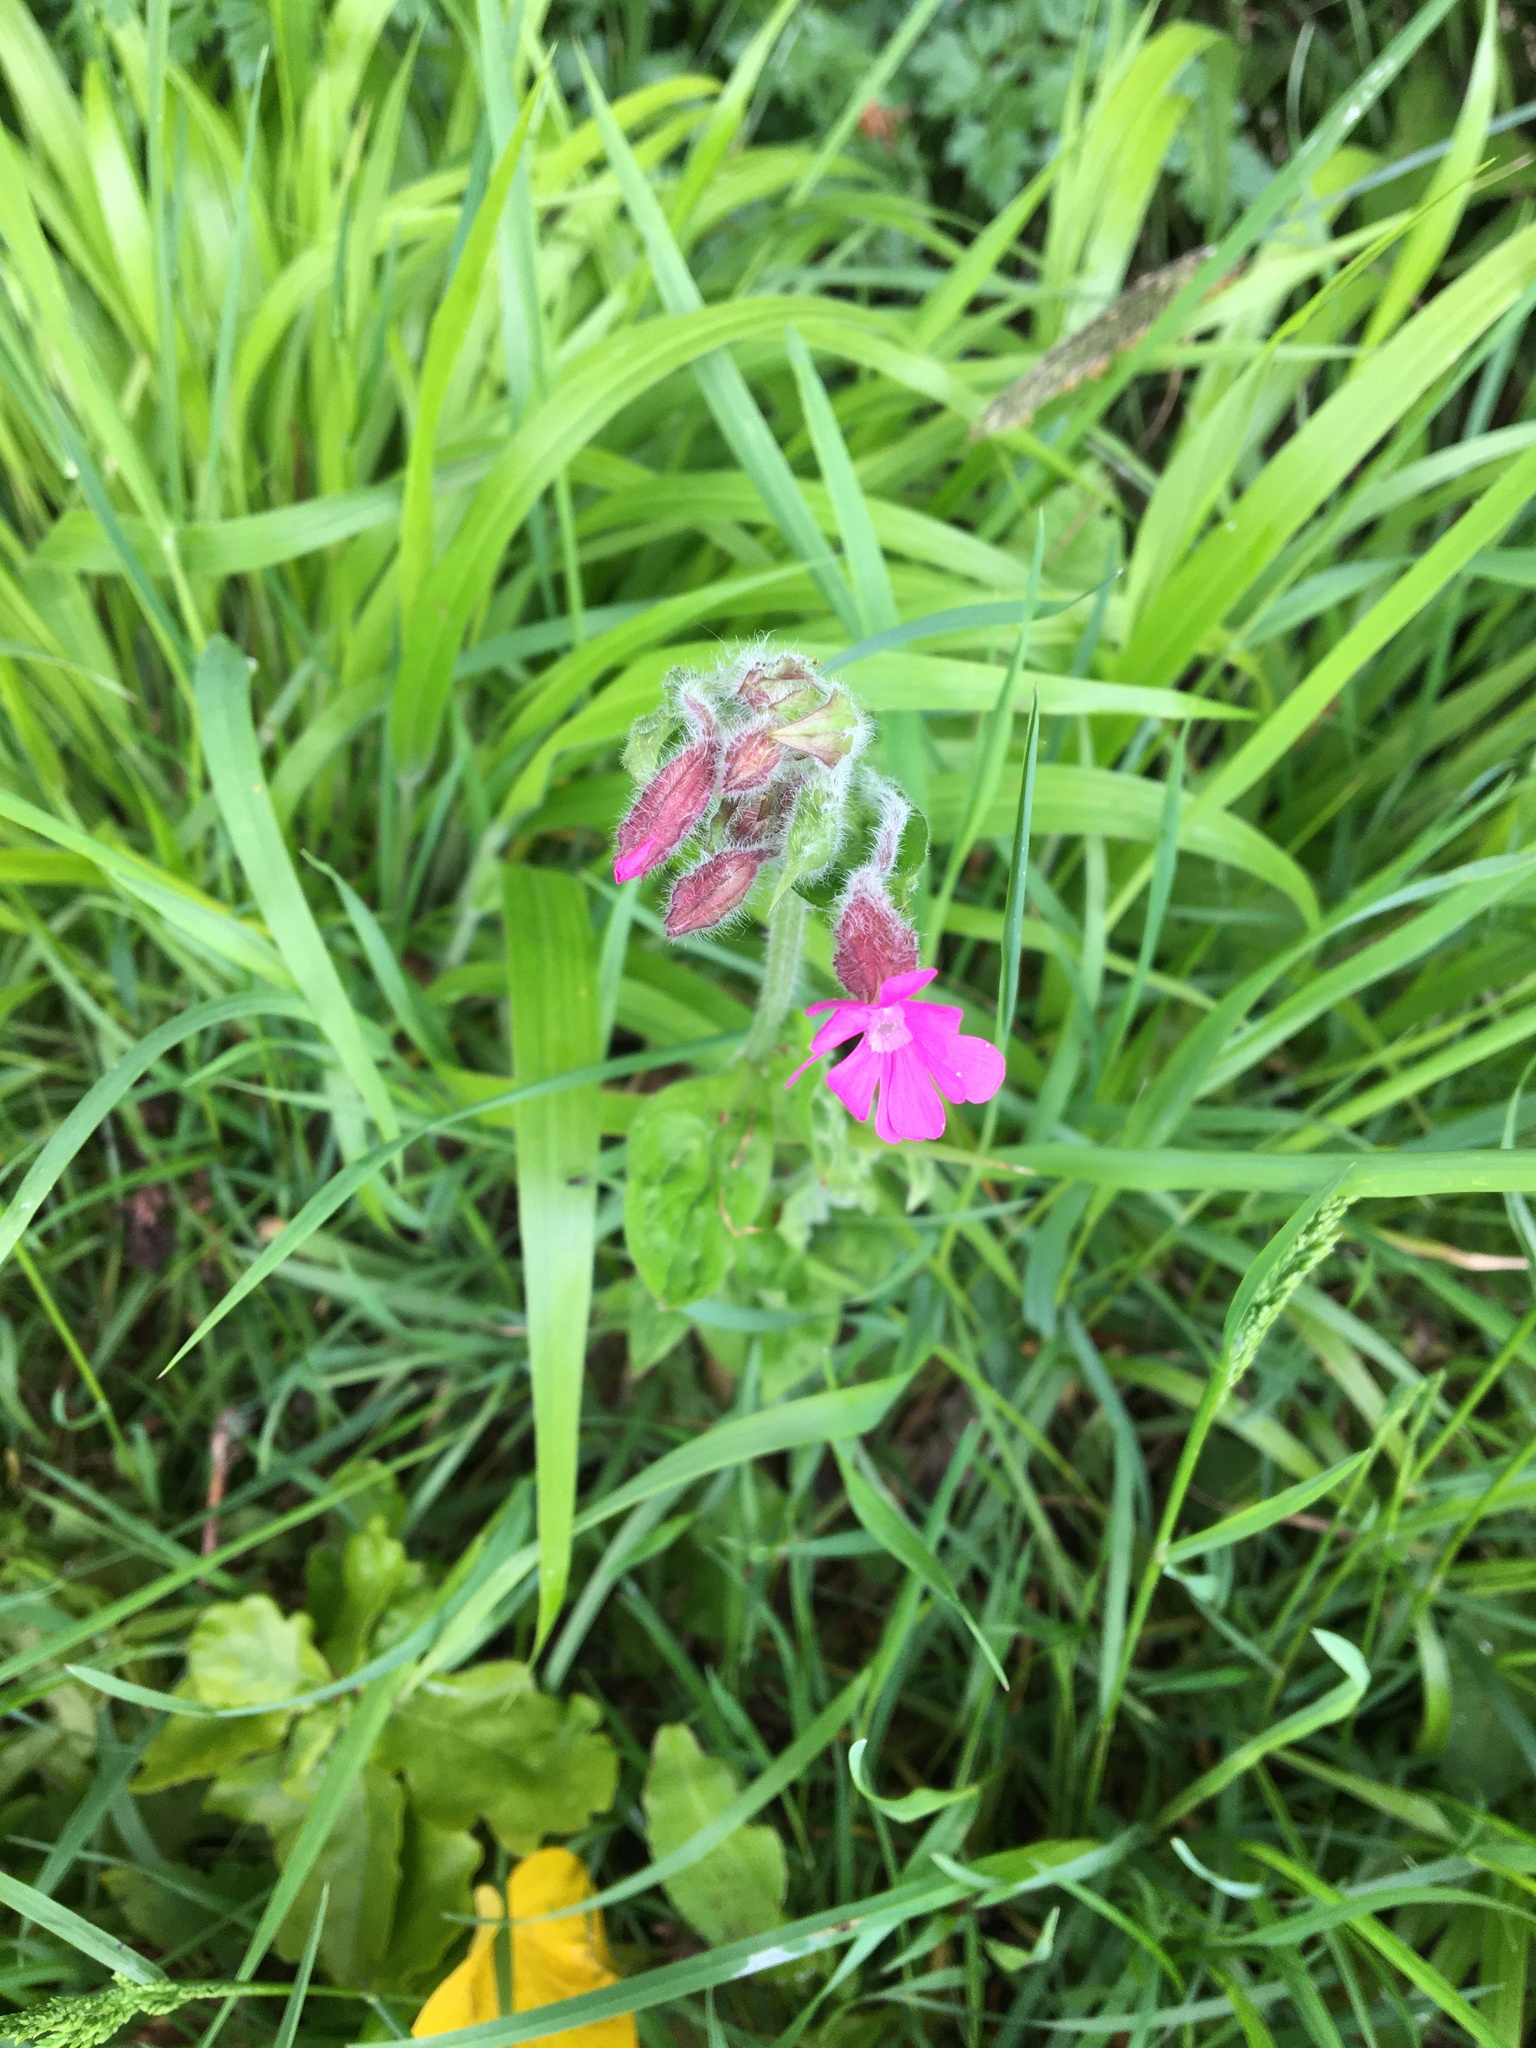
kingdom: Plantae
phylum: Tracheophyta
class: Magnoliopsida
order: Caryophyllales
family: Caryophyllaceae
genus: Silene
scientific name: Silene dioica
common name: Red campion
